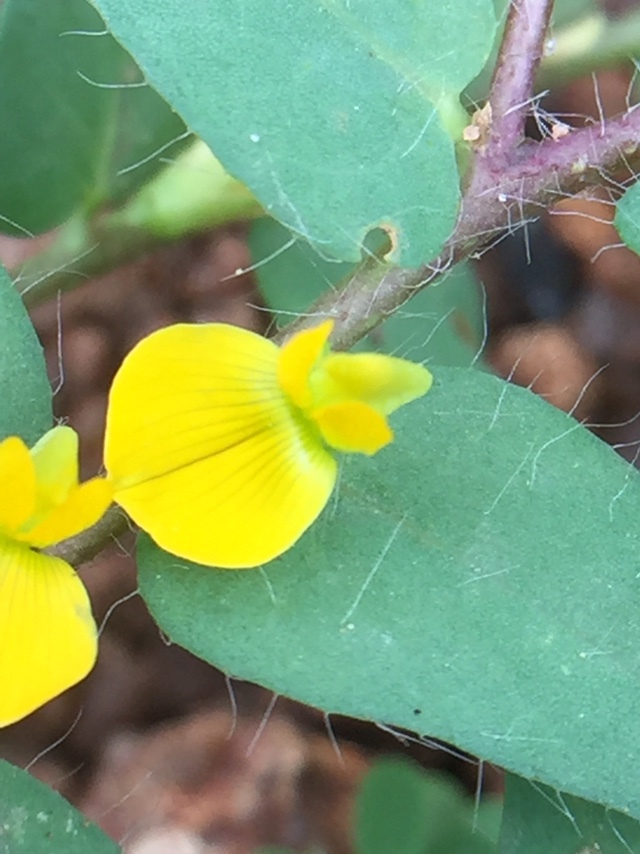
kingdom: Plantae
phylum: Tracheophyta
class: Magnoliopsida
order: Fabales
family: Fabaceae
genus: Crotalaria
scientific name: Crotalaria hebecarpa
